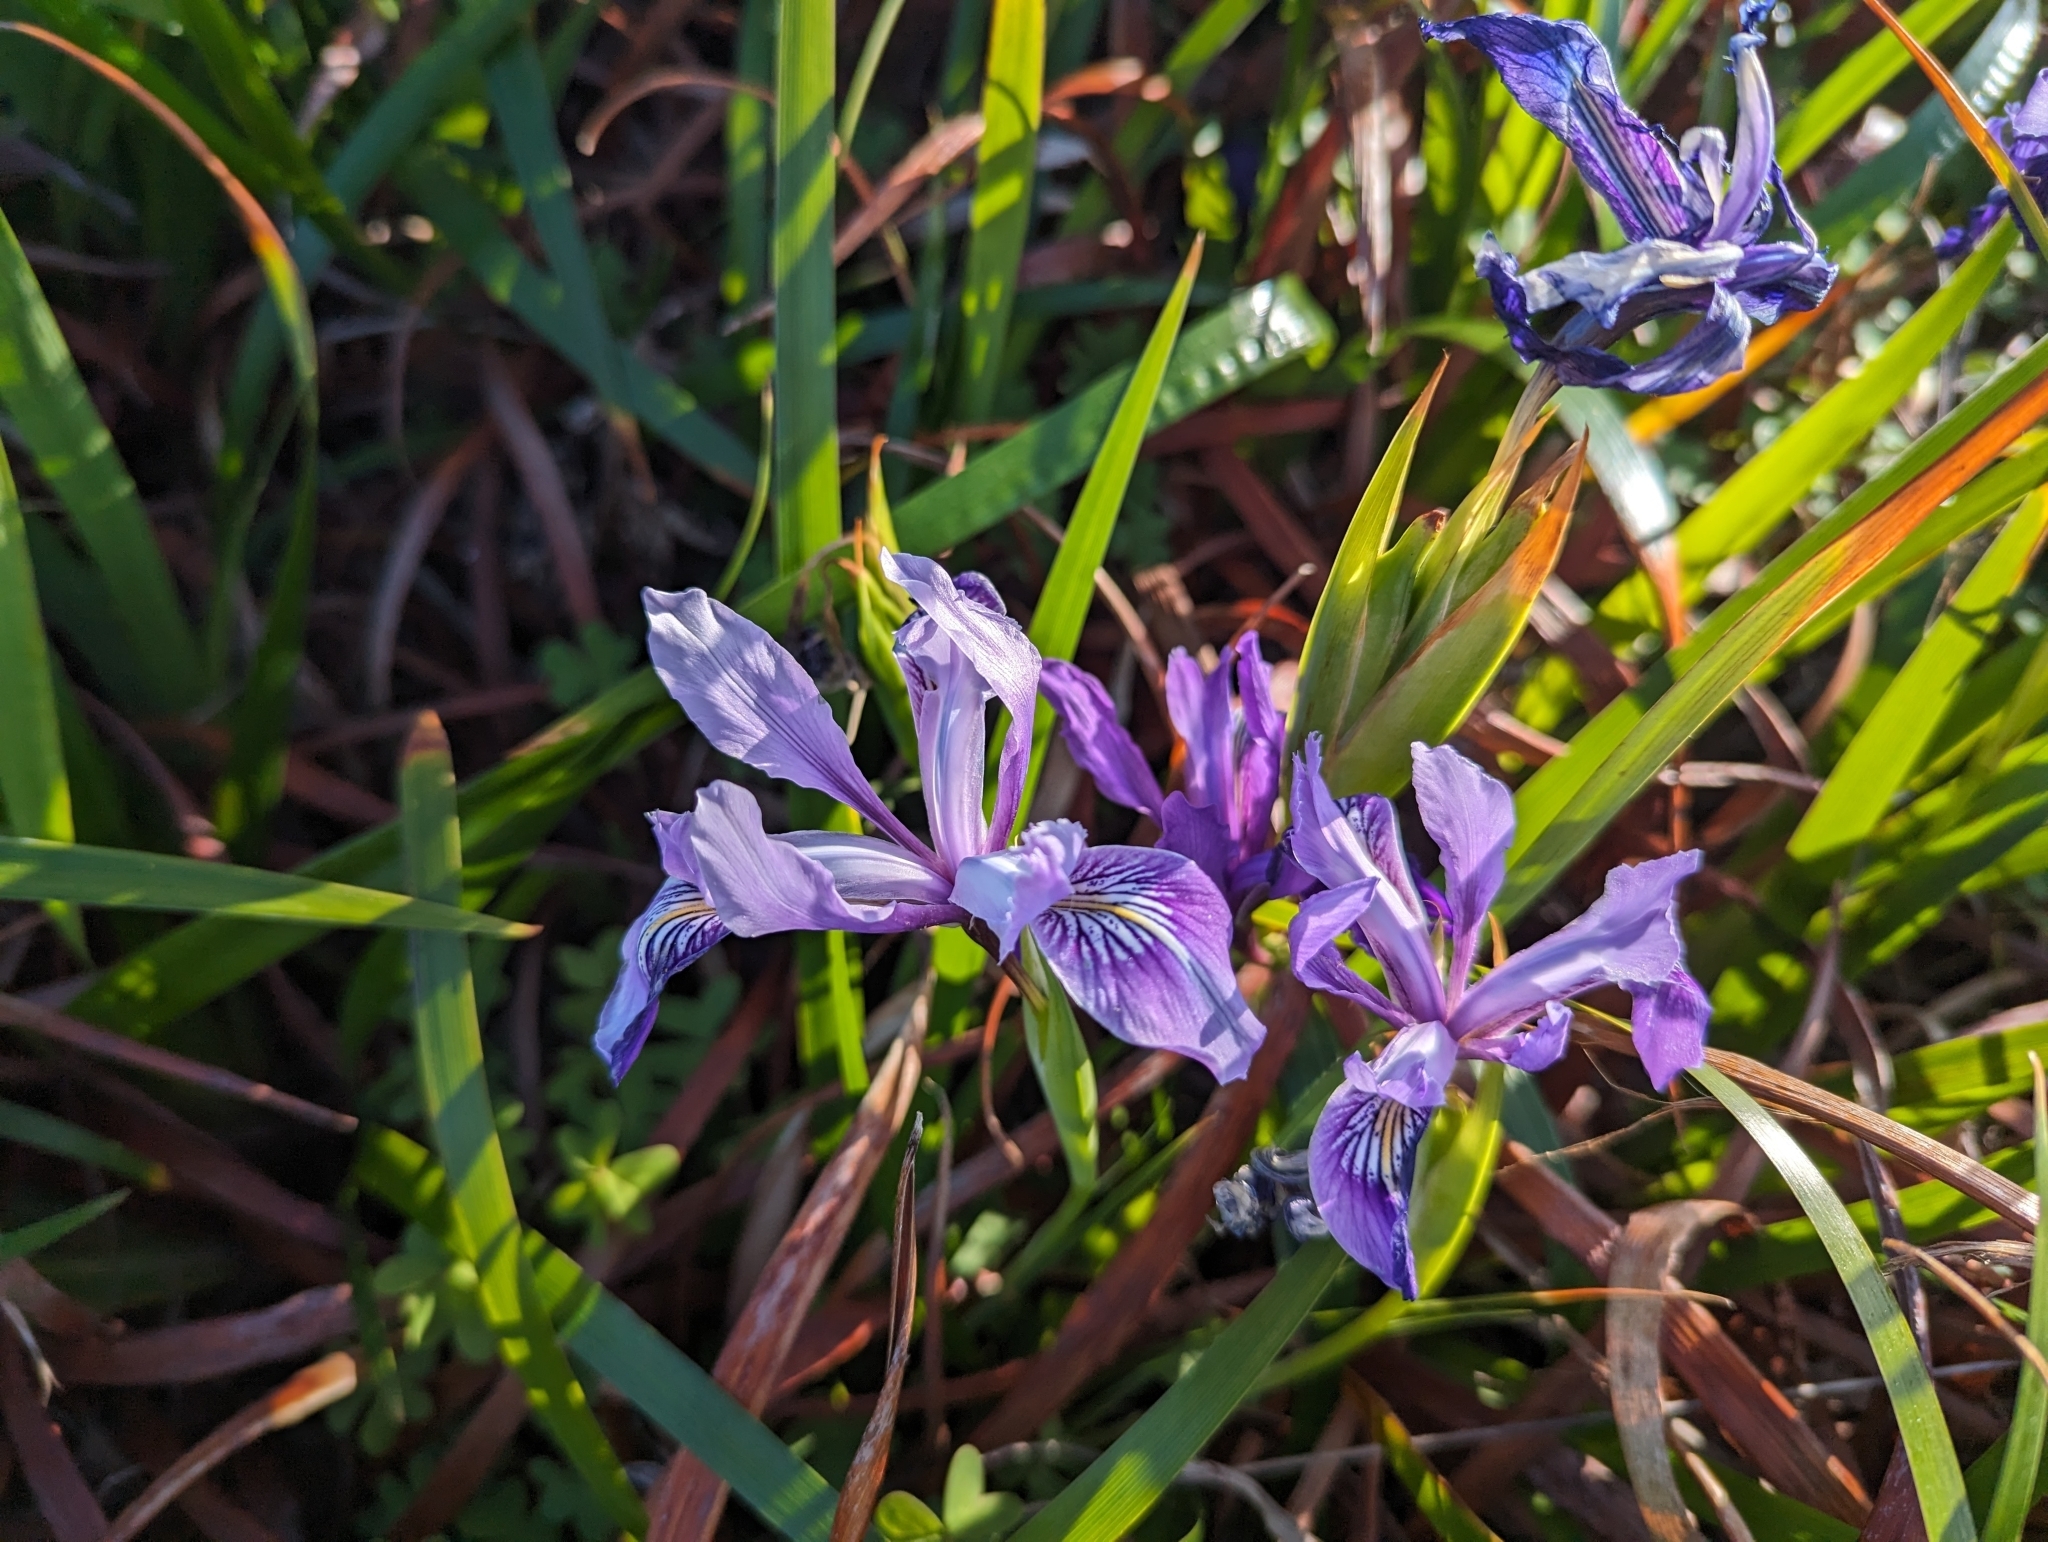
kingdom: Plantae
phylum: Tracheophyta
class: Liliopsida
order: Asparagales
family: Iridaceae
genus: Iris
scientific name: Iris douglasiana
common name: Marin iris
